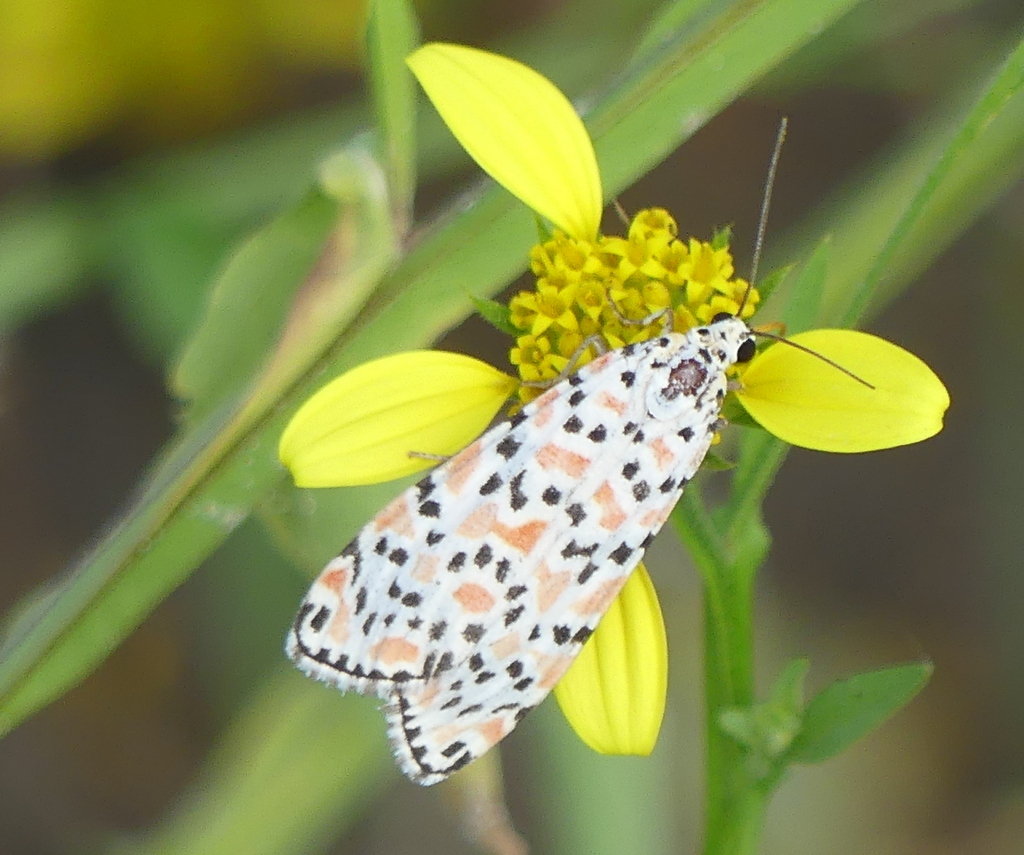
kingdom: Animalia
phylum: Arthropoda
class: Insecta
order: Lepidoptera
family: Erebidae
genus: Utetheisa
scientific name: Utetheisa pulchella
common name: Crimson speckled
